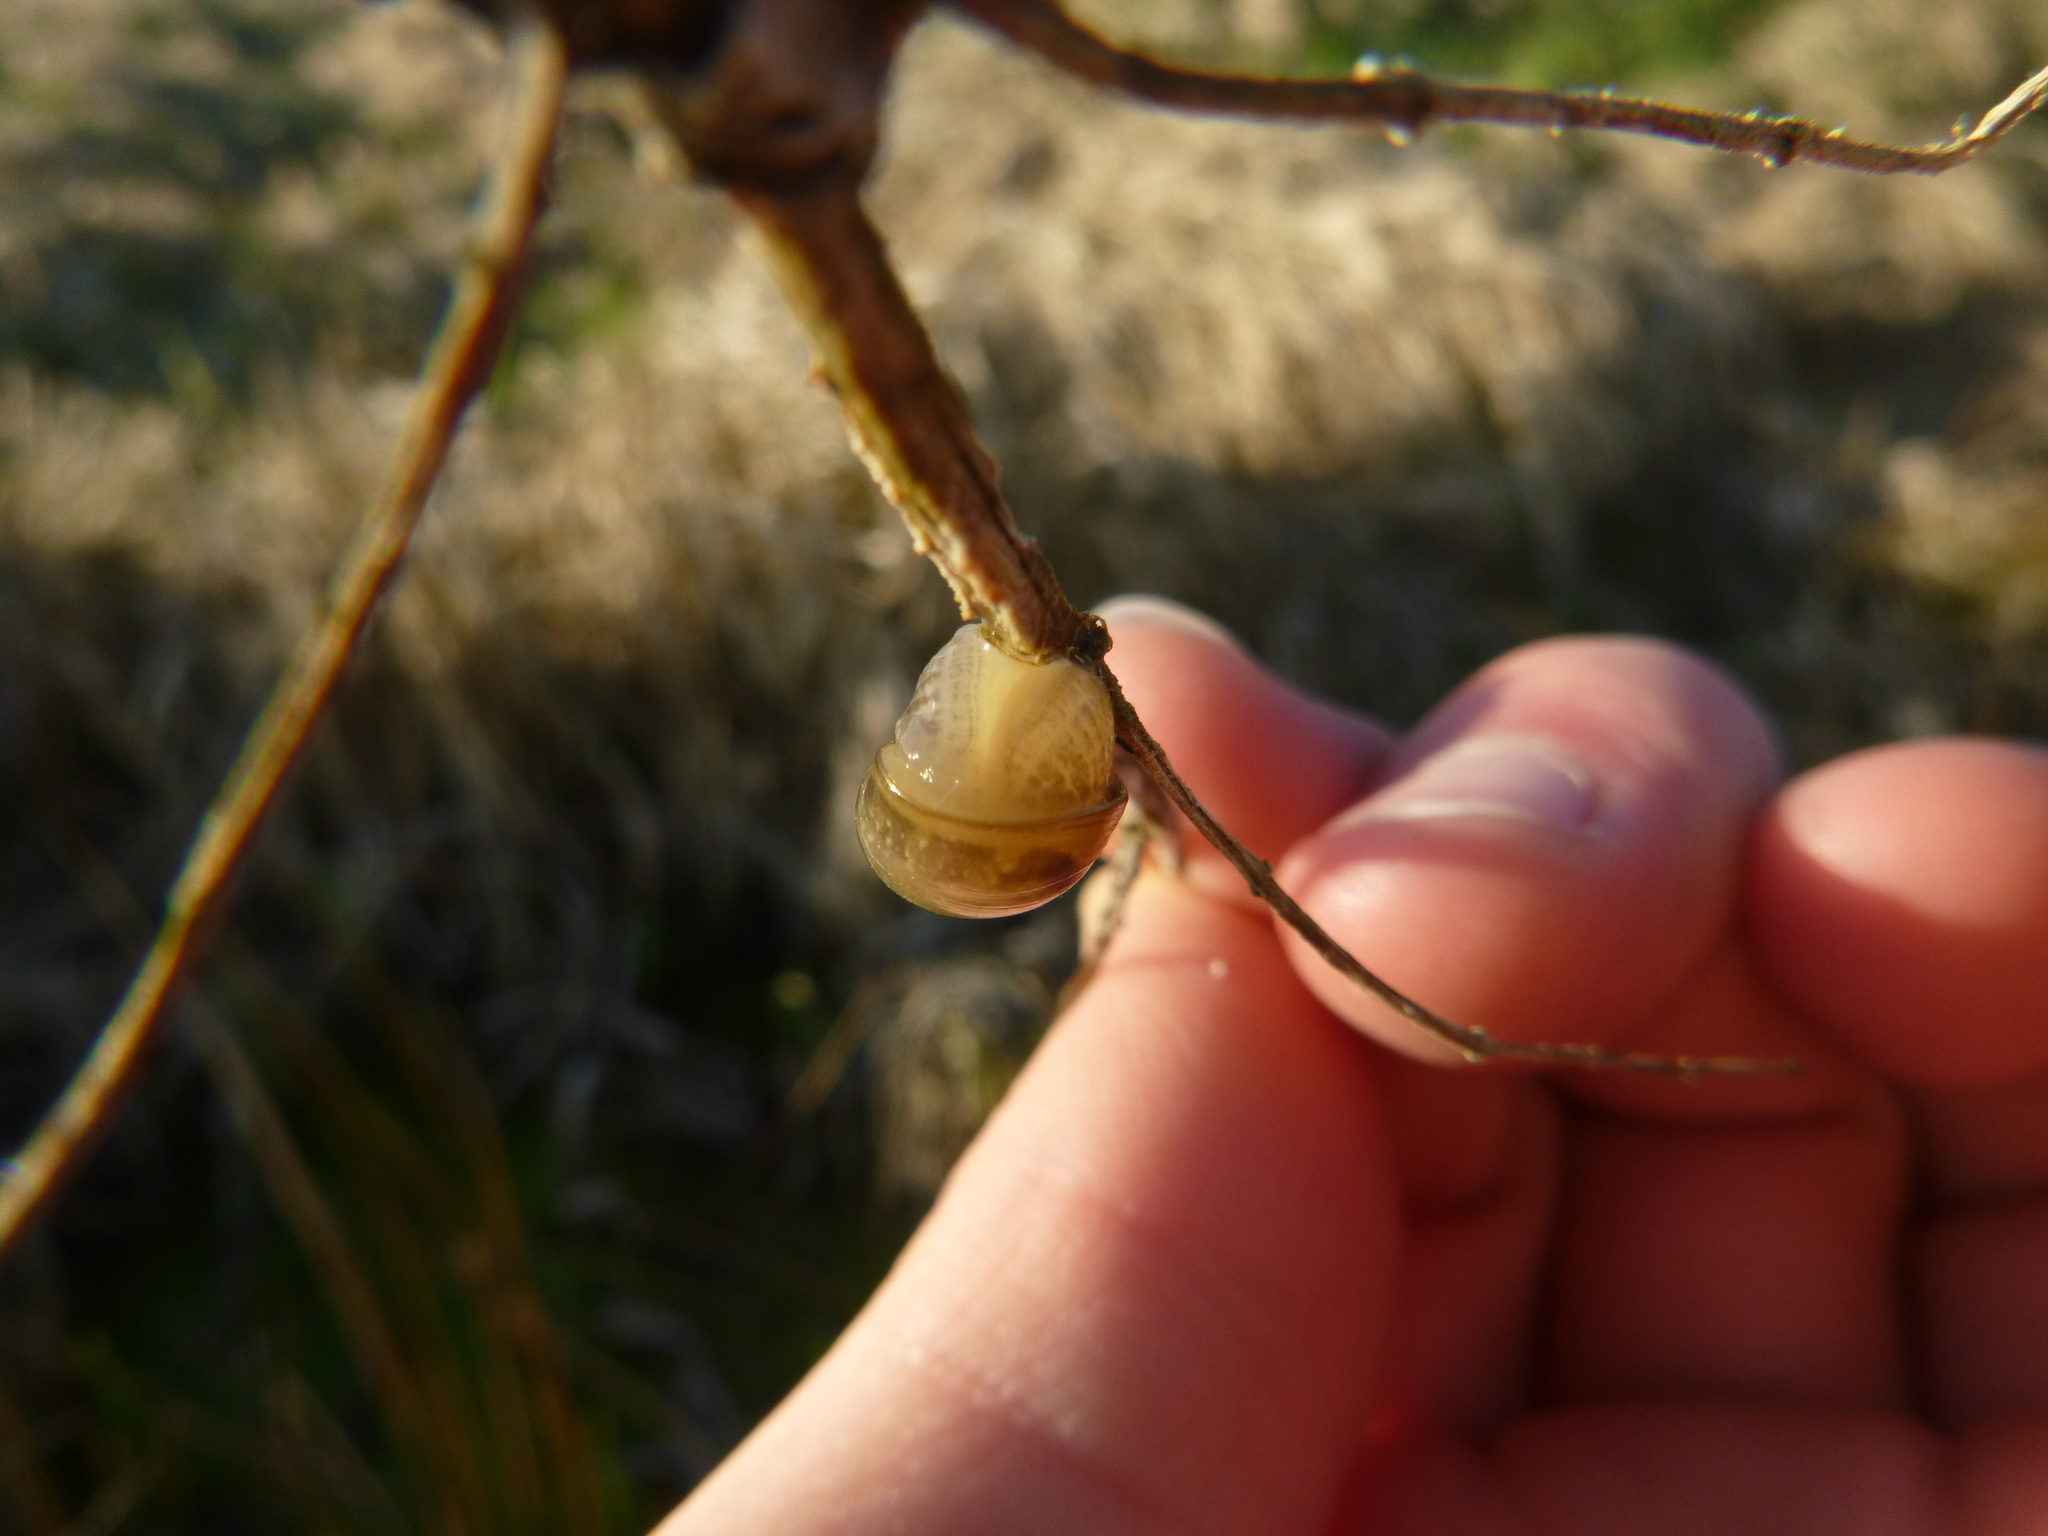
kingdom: Animalia
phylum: Mollusca
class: Gastropoda
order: Stylommatophora
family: Succineidae
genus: Succinea
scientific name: Succinea putris
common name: European ambersnail
